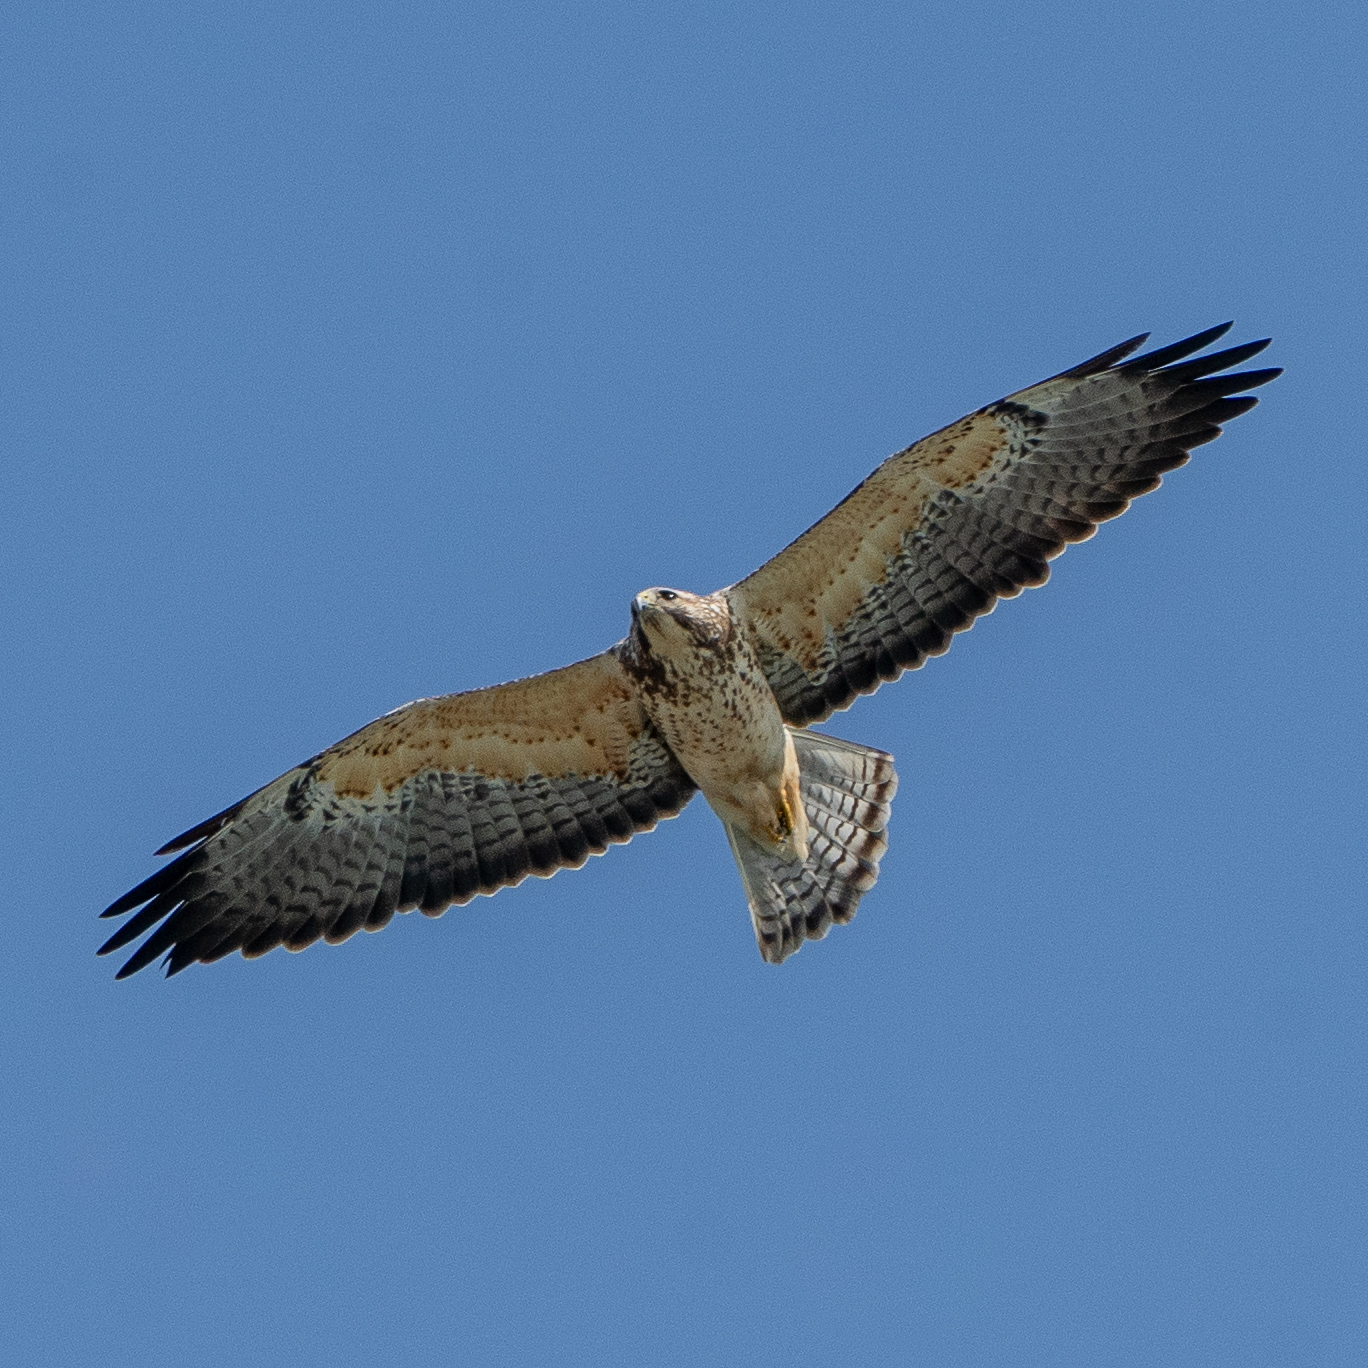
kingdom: Animalia
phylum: Chordata
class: Aves
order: Accipitriformes
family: Accipitridae
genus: Buteo
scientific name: Buteo swainsoni
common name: Swainson's hawk
